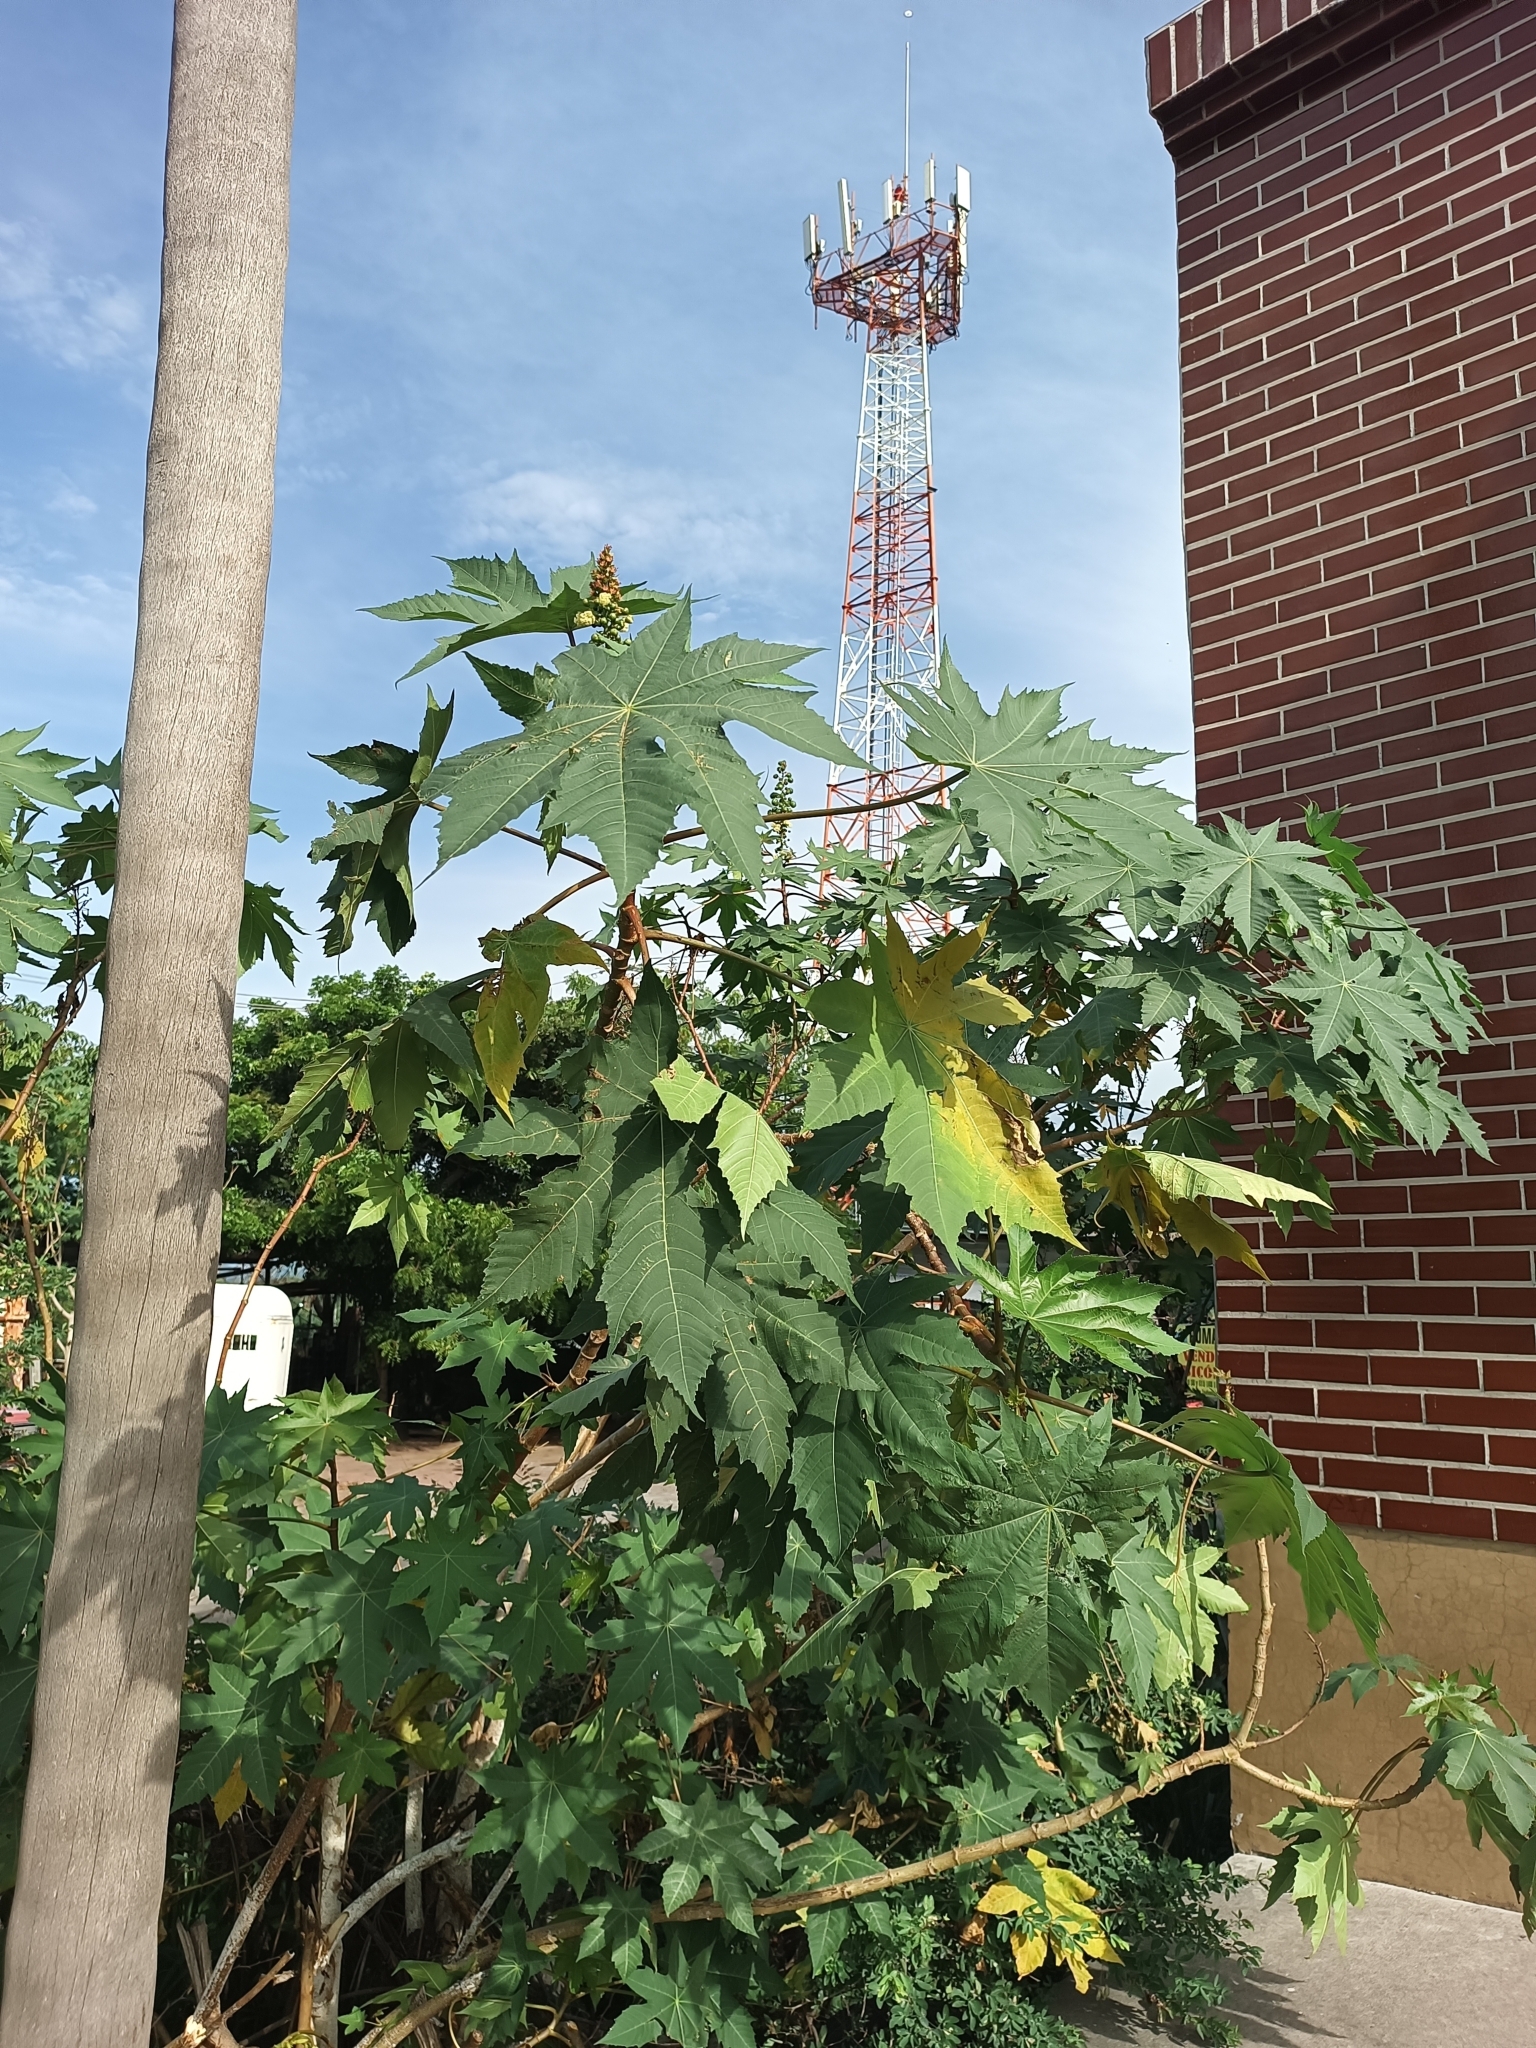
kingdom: Plantae
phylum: Tracheophyta
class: Magnoliopsida
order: Malpighiales
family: Euphorbiaceae
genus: Ricinus
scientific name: Ricinus communis
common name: Castor-oil-plant
